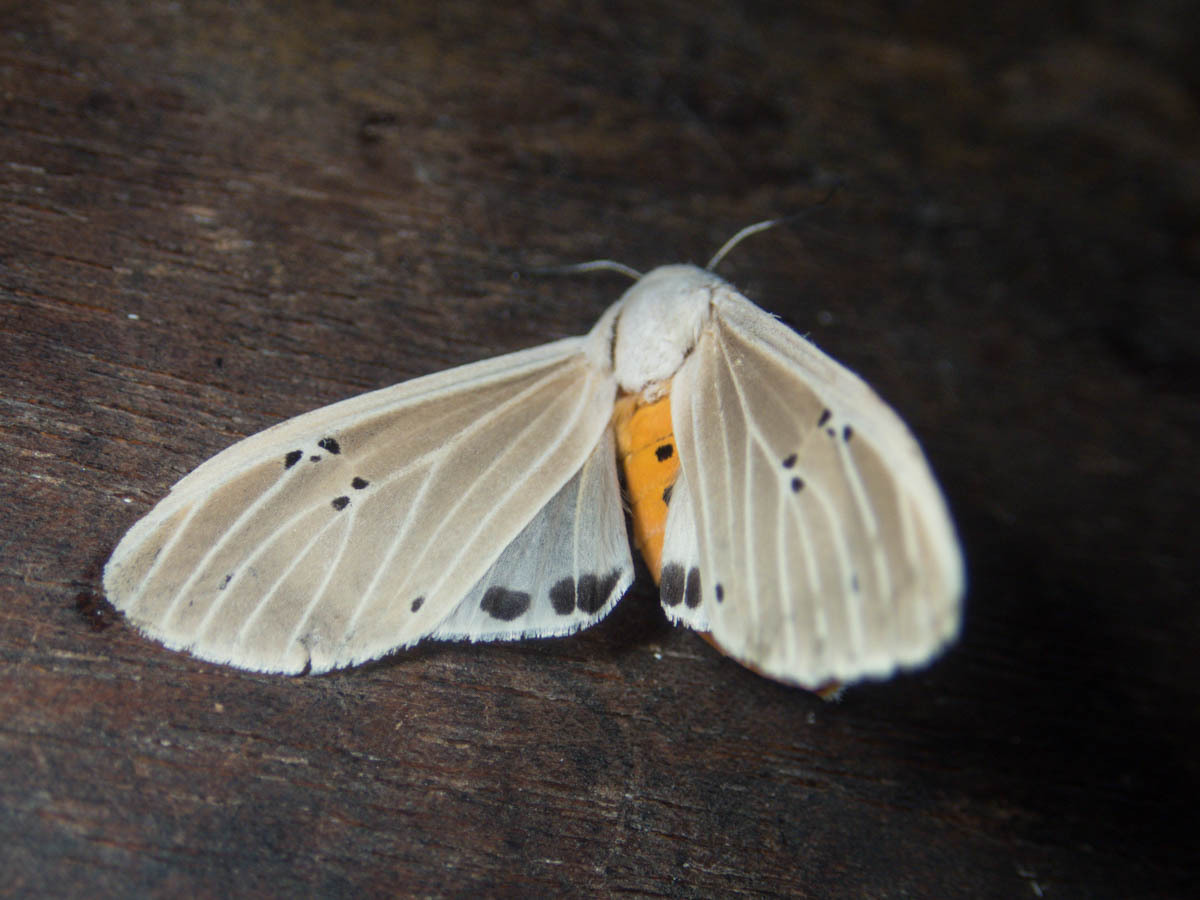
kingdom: Animalia
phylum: Arthropoda
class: Insecta
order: Lepidoptera
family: Erebidae
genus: Creatonotos
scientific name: Creatonotos transiens
